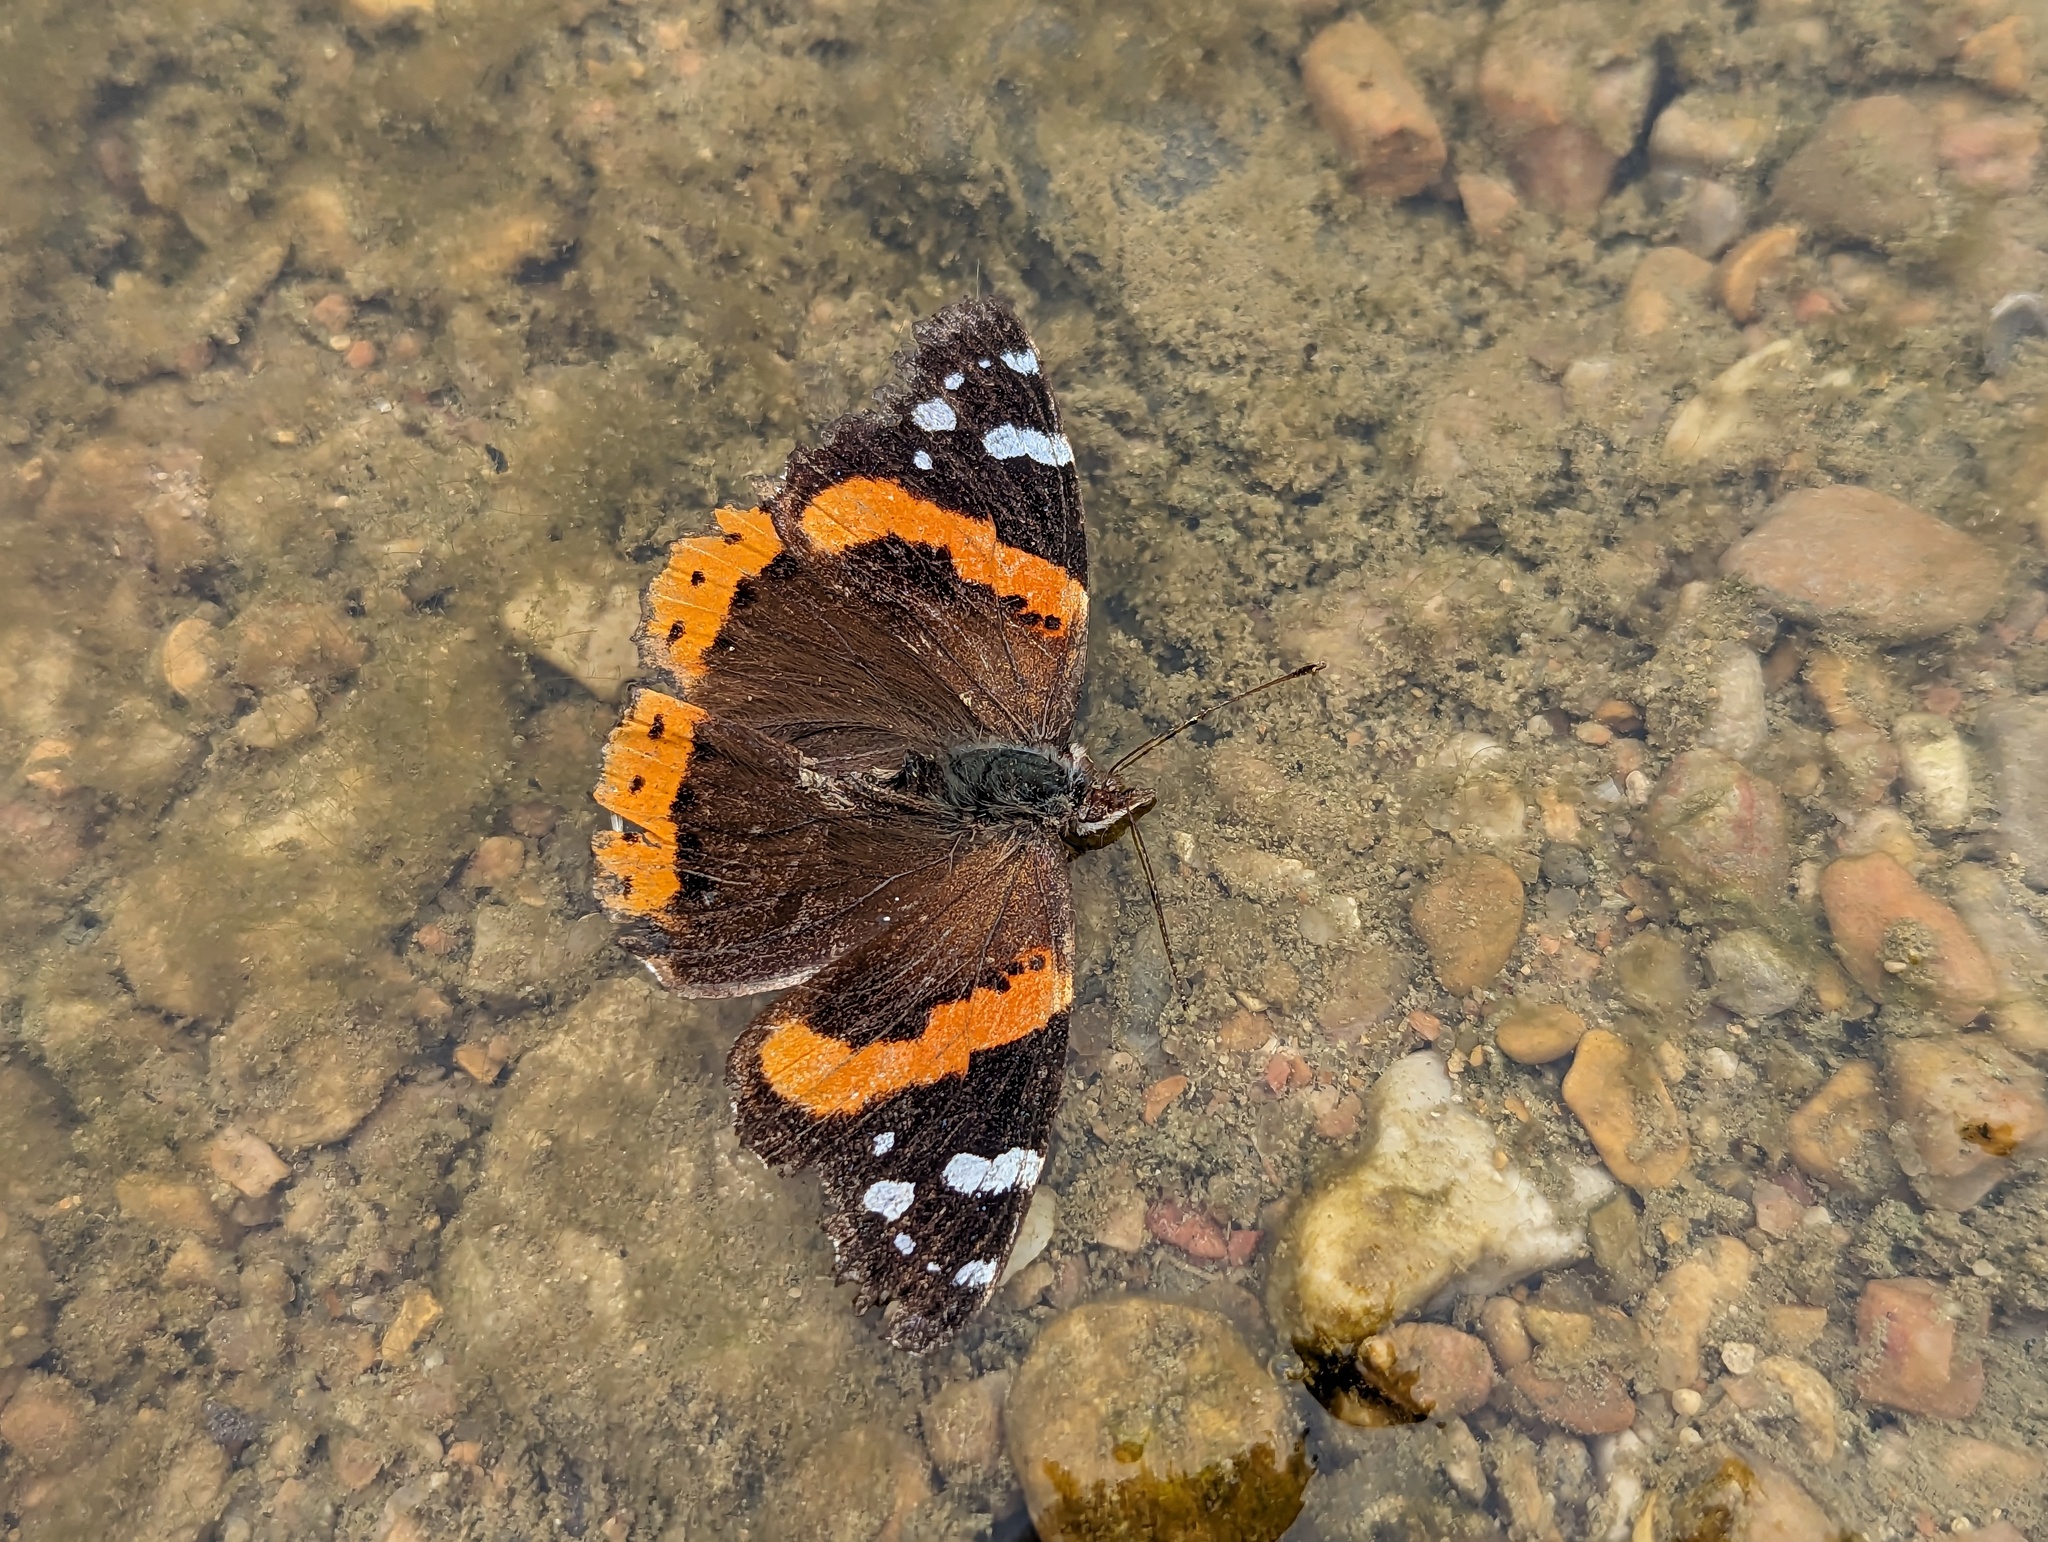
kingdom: Animalia
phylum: Arthropoda
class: Insecta
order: Lepidoptera
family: Nymphalidae
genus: Vanessa
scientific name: Vanessa atalanta
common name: Red admiral
